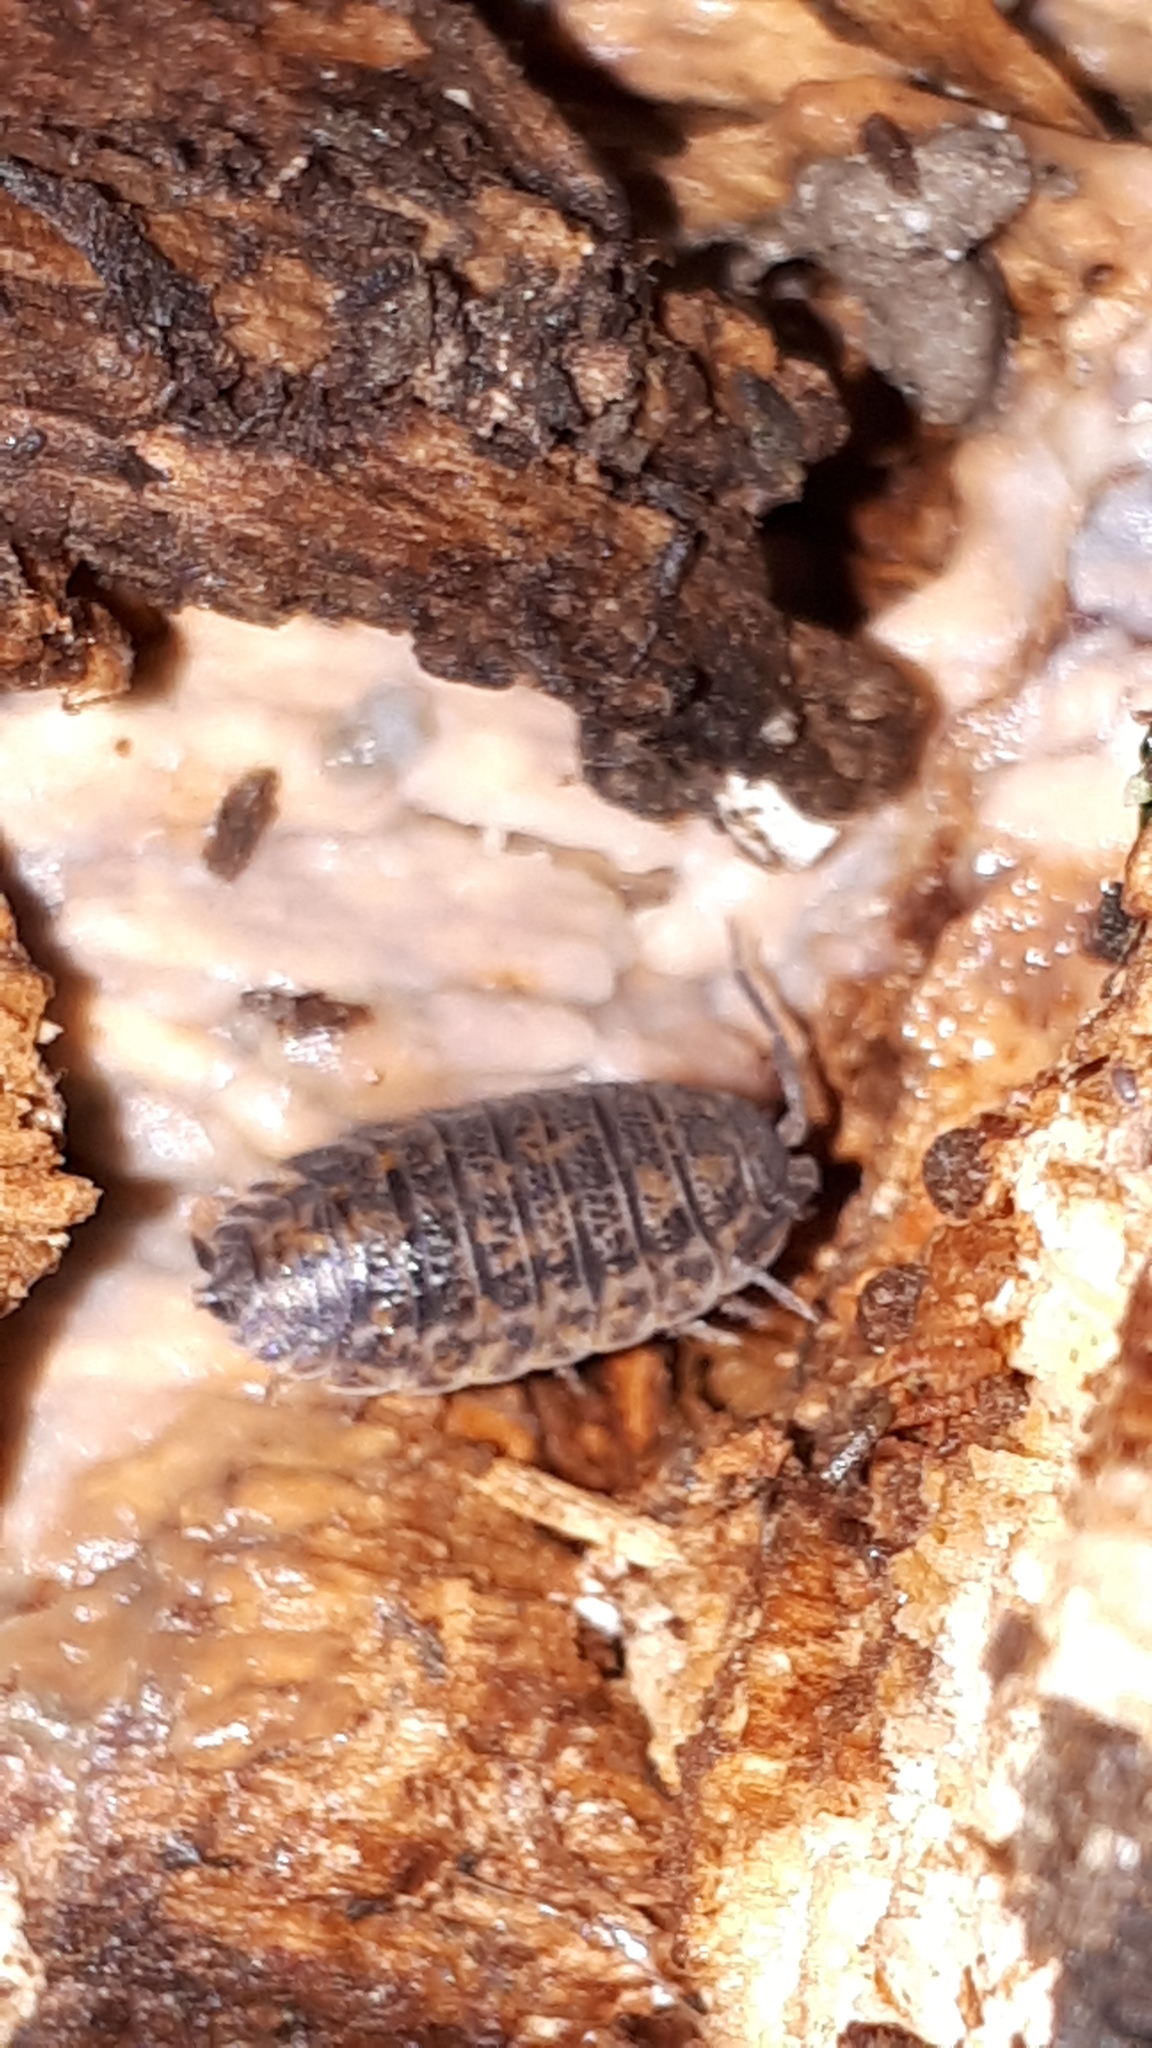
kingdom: Animalia
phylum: Arthropoda
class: Malacostraca
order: Isopoda
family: Trachelipodidae
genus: Trachelipus
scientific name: Trachelipus rathkii
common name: Isopod
